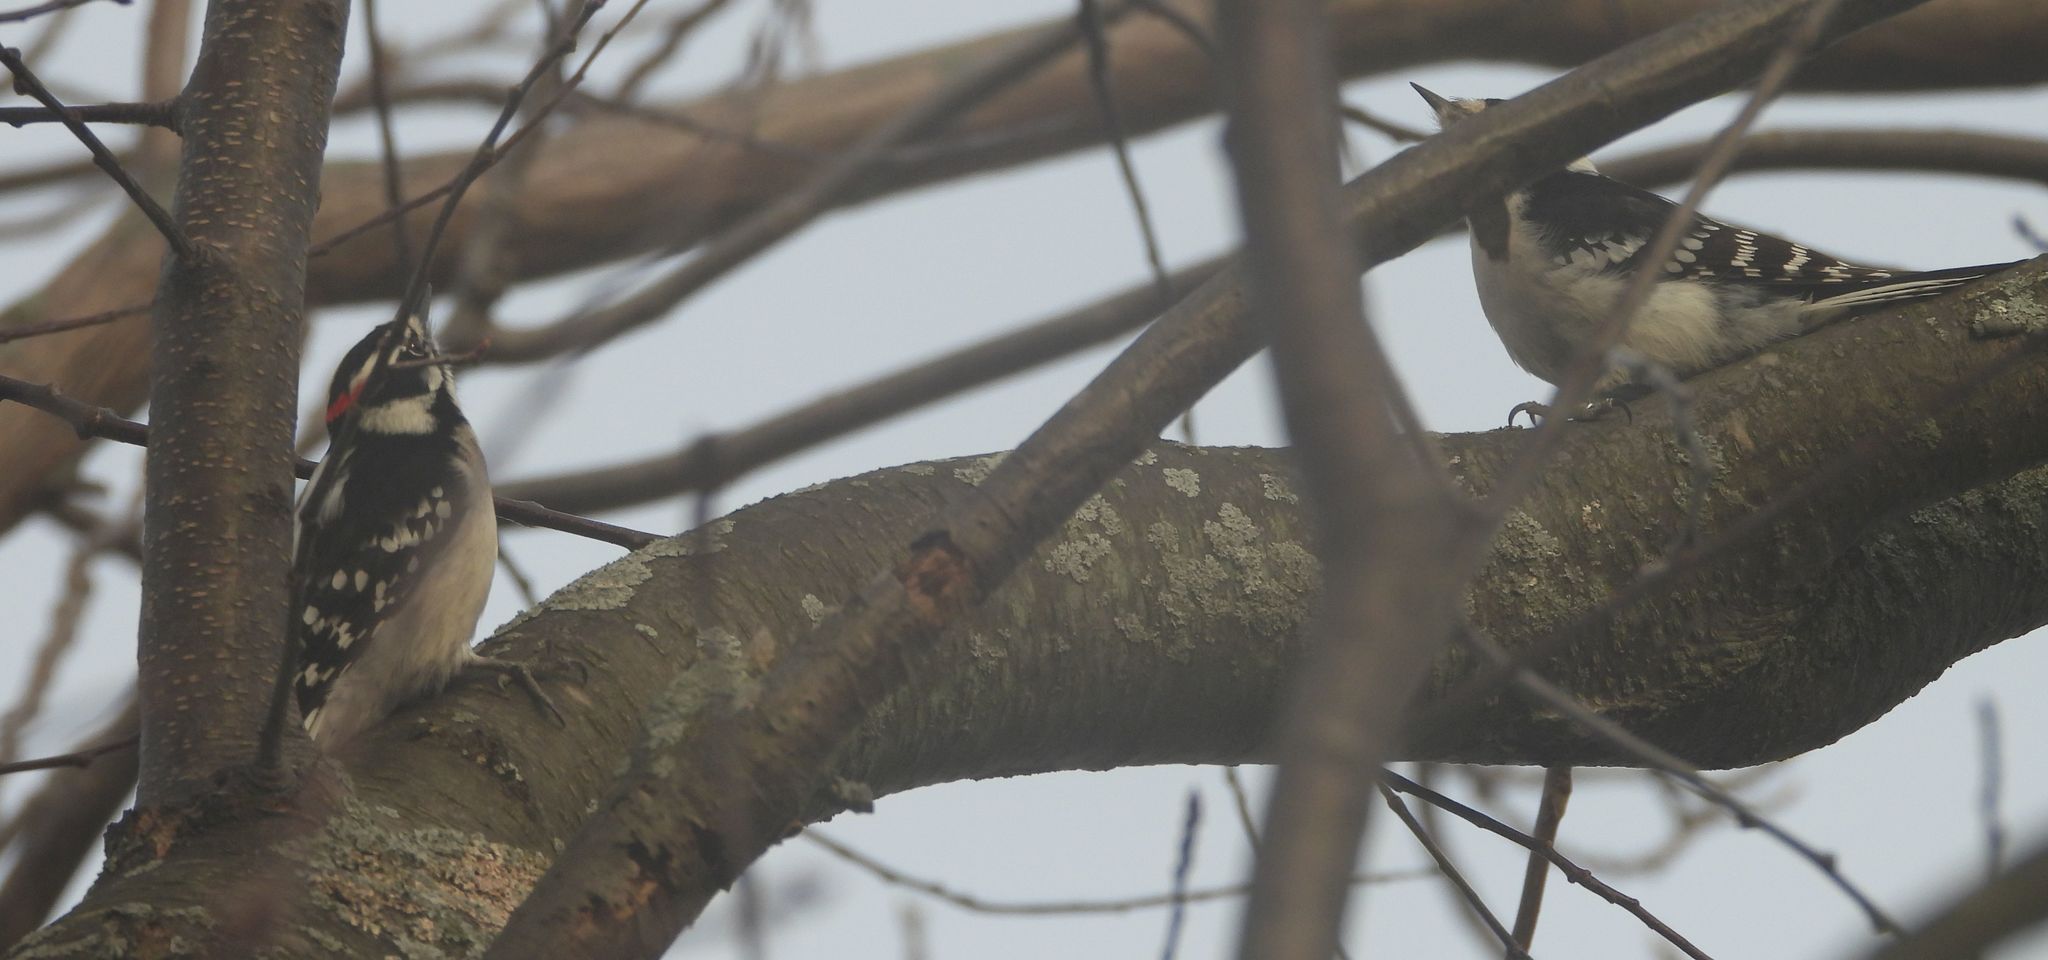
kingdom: Animalia
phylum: Chordata
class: Aves
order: Piciformes
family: Picidae
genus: Dryobates
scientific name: Dryobates pubescens
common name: Downy woodpecker
